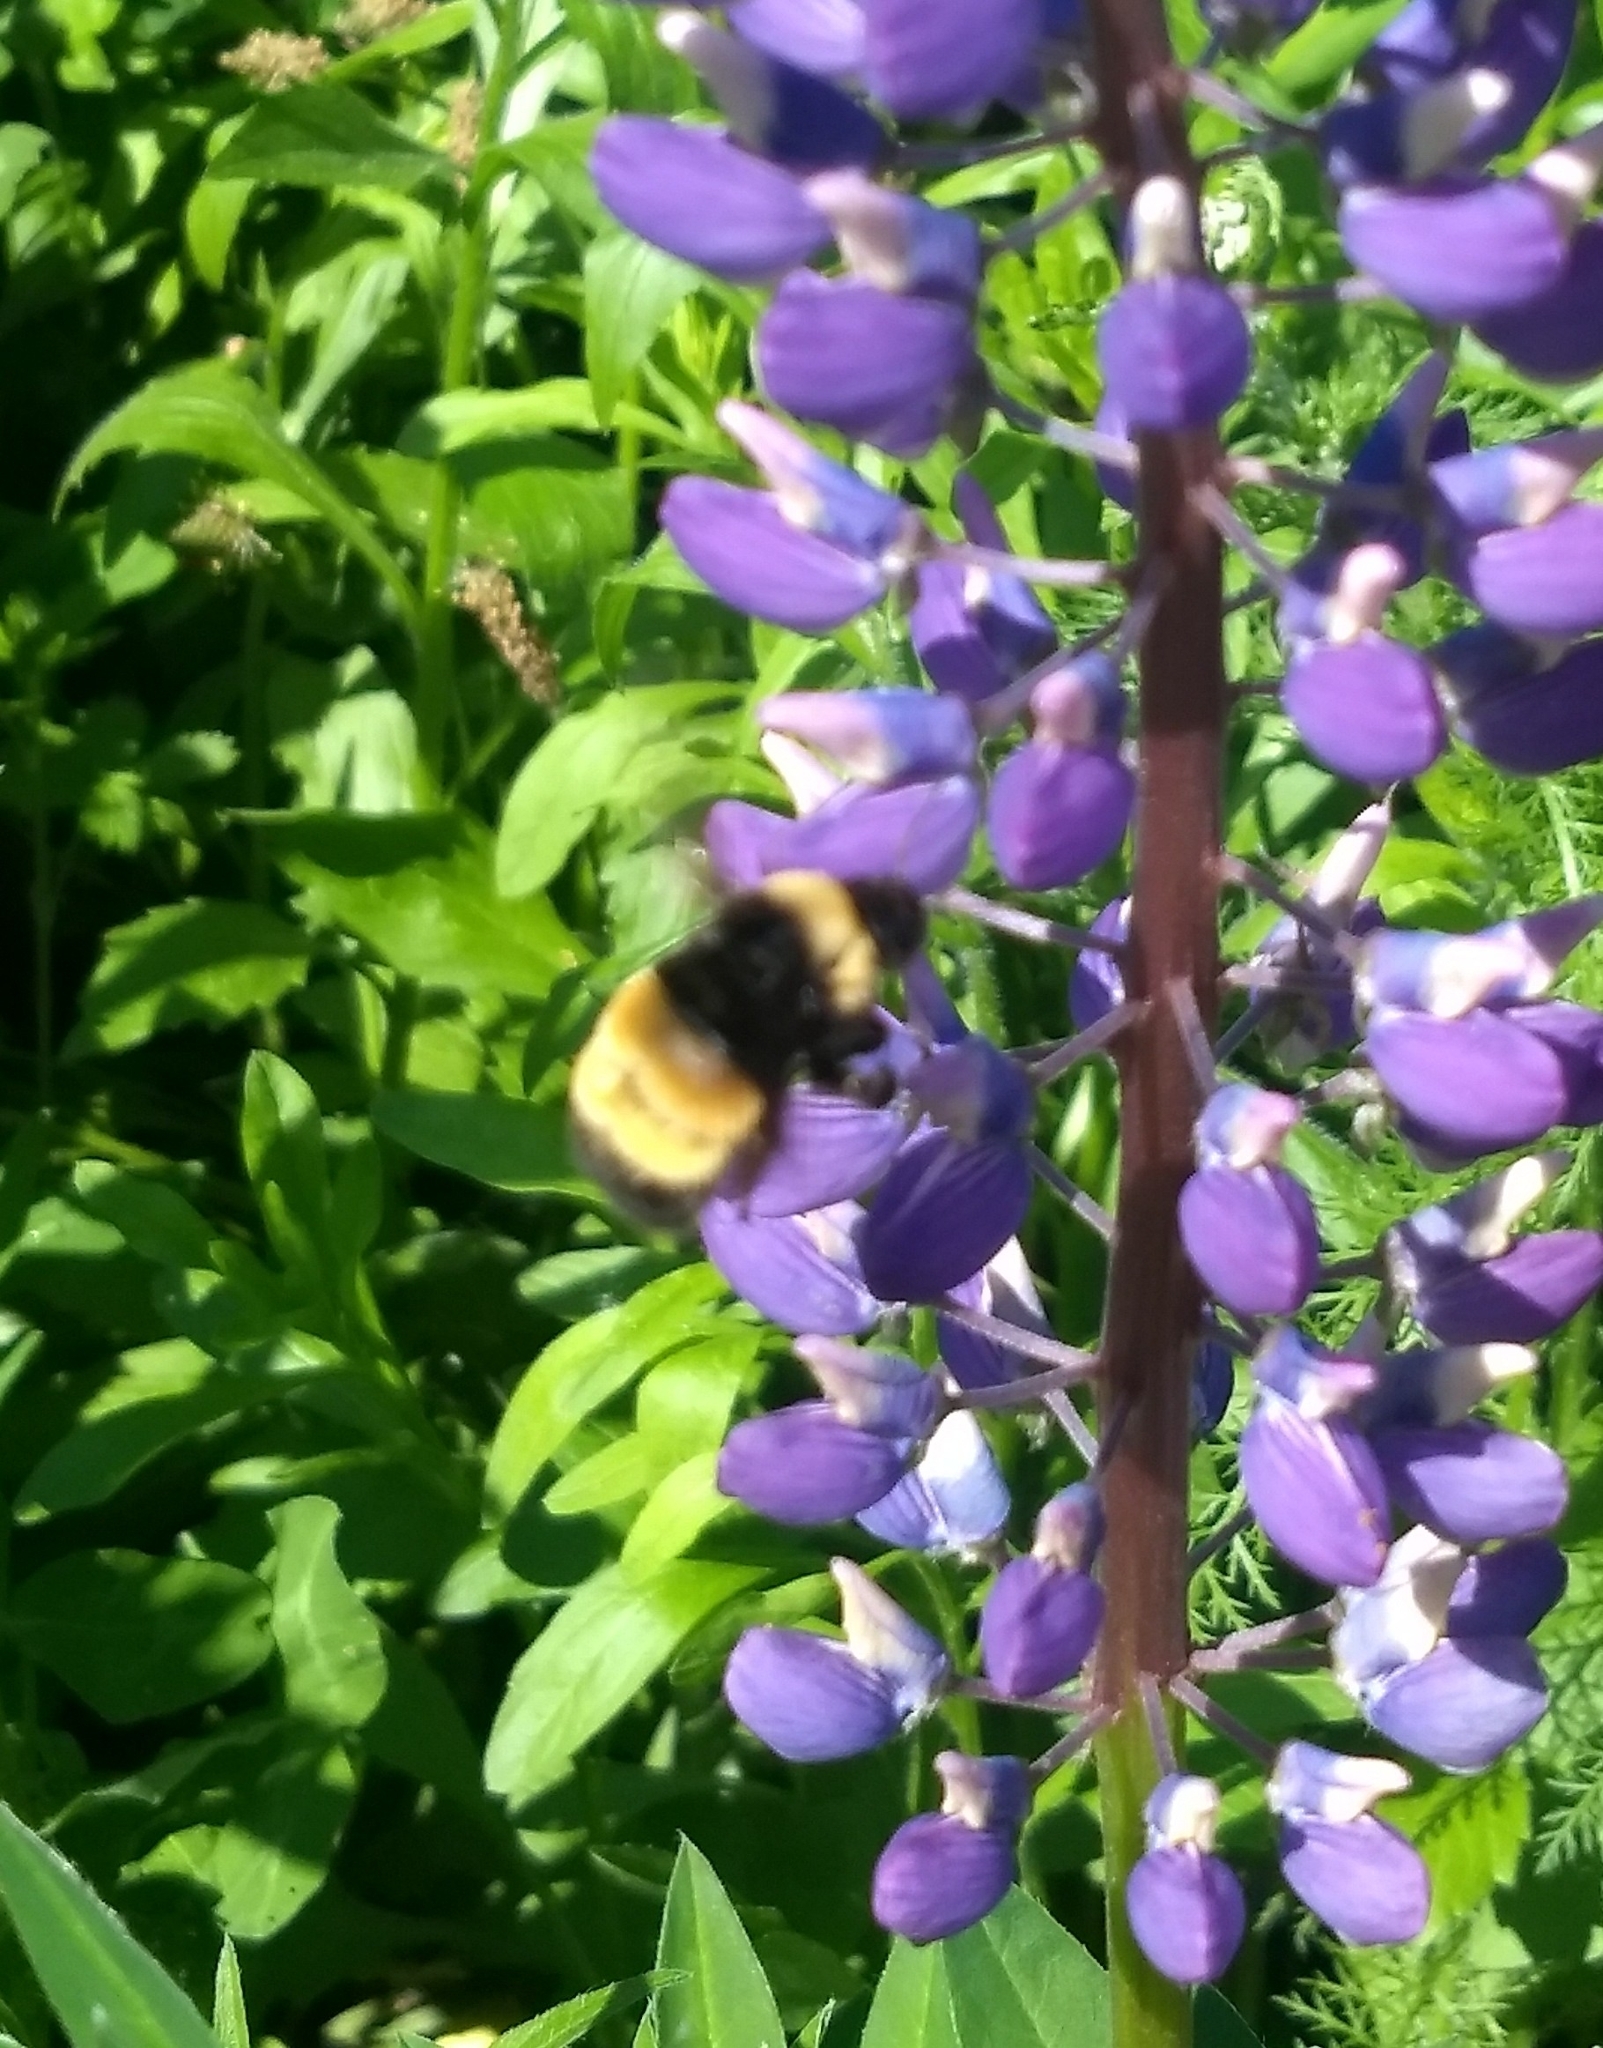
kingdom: Animalia
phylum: Arthropoda
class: Insecta
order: Hymenoptera
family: Apidae
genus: Bombus
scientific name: Bombus terricola
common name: Yellow-banded bumble bee
